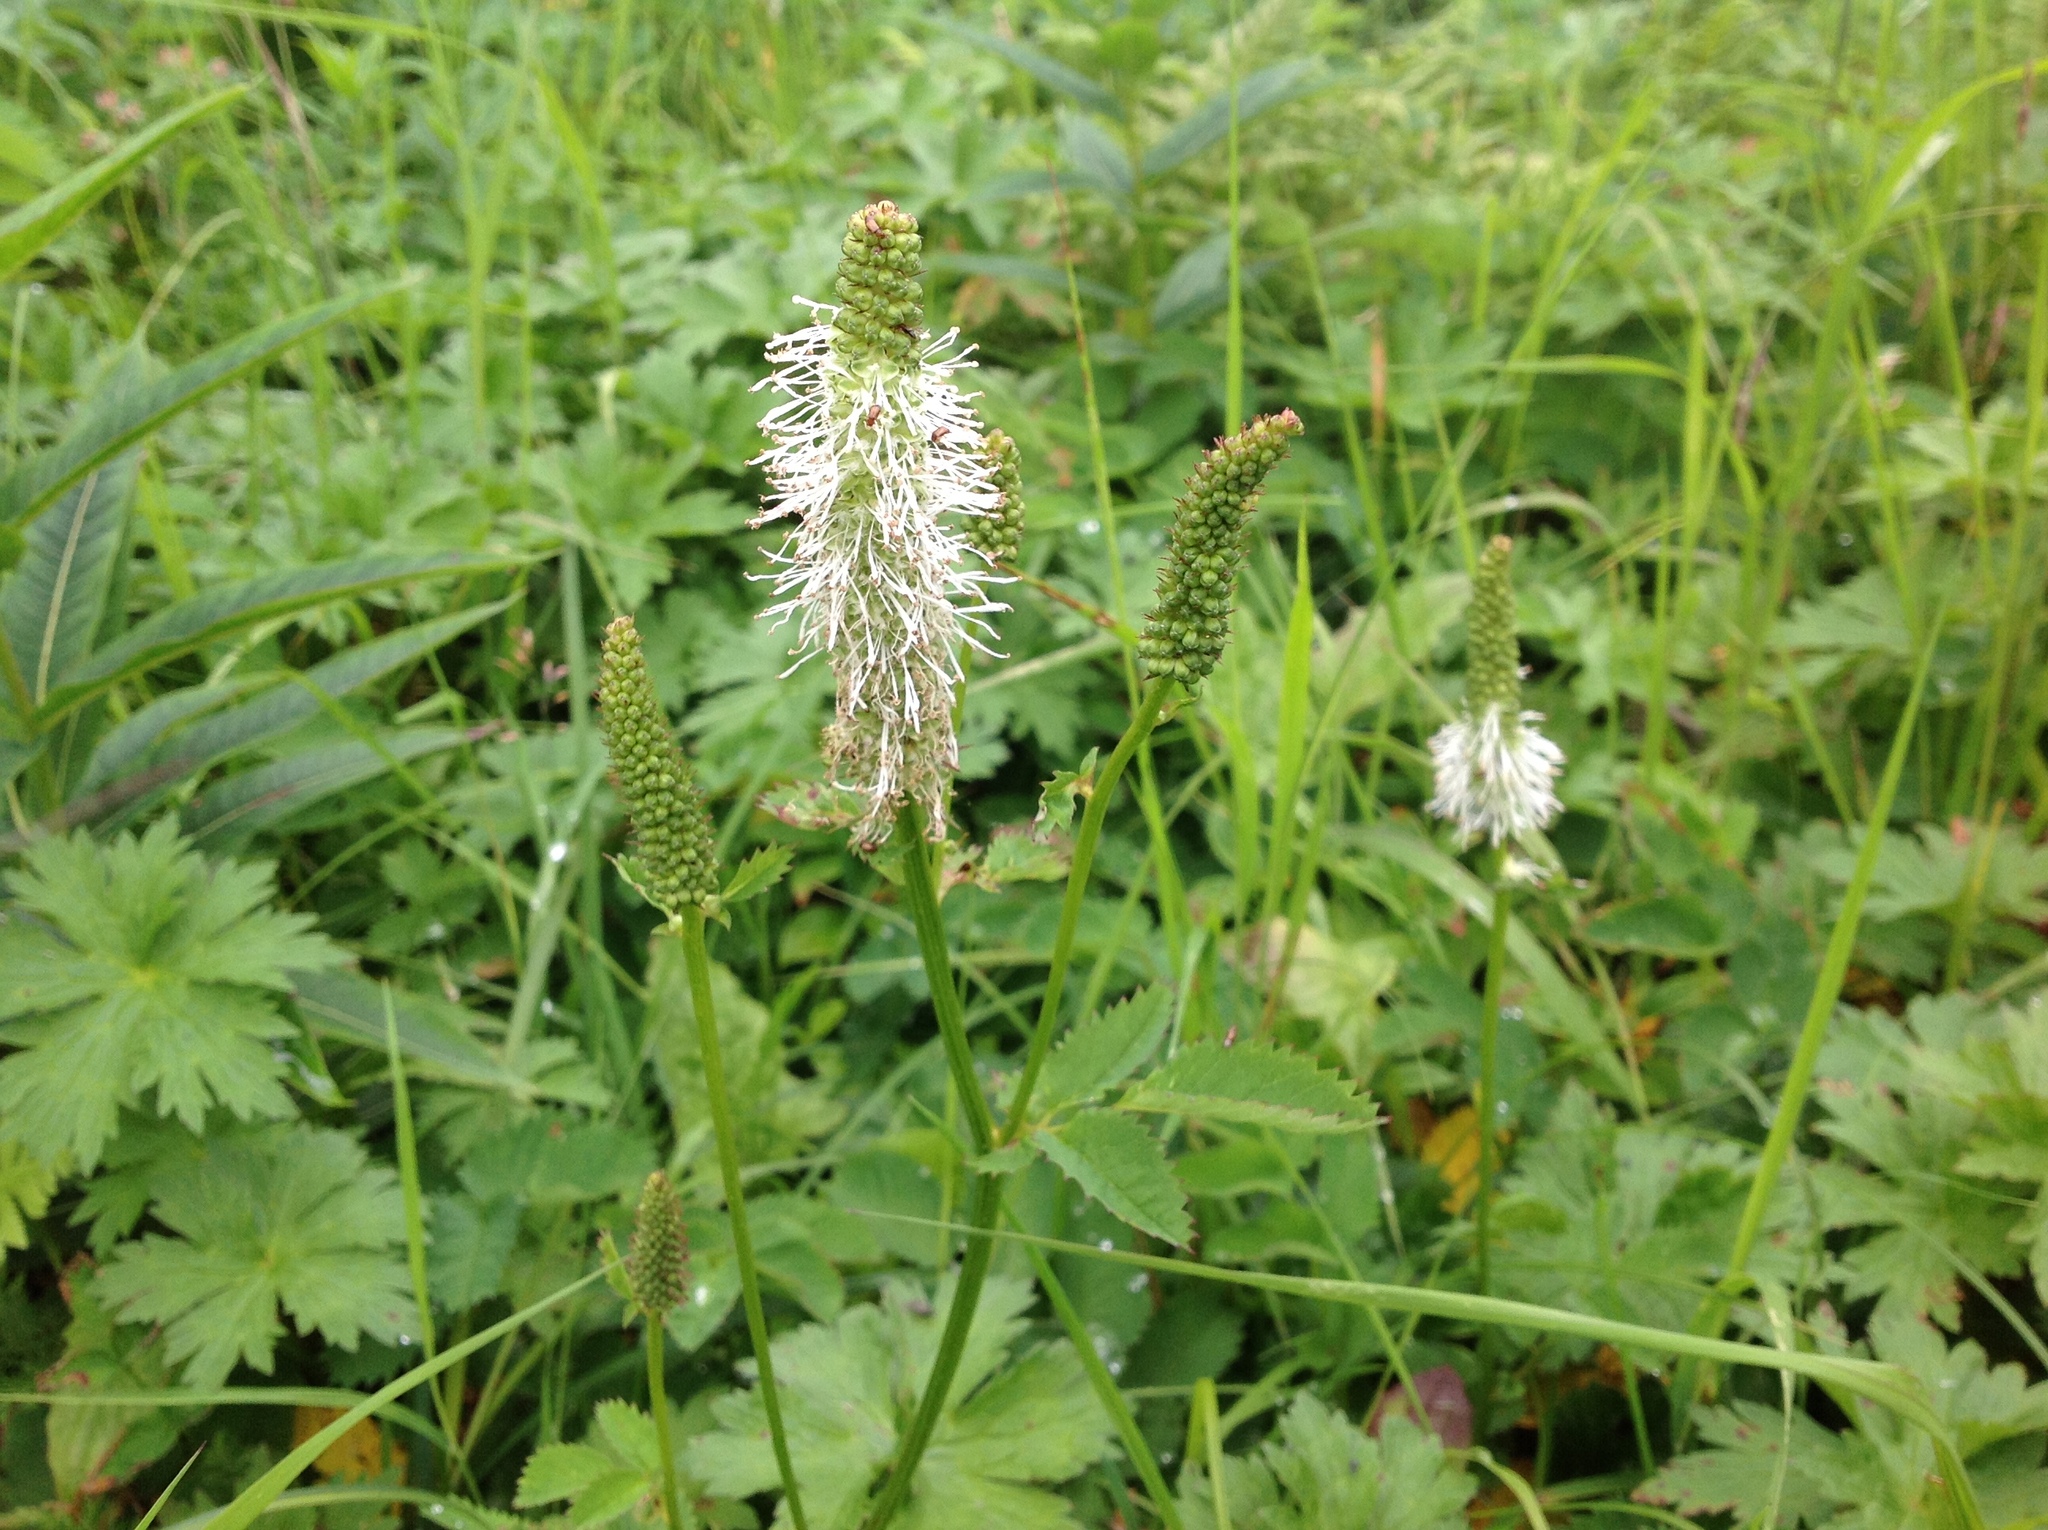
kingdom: Plantae
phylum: Tracheophyta
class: Magnoliopsida
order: Rosales
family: Rosaceae
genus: Sanguisorba
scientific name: Sanguisorba stipulata
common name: Sitka burnet
